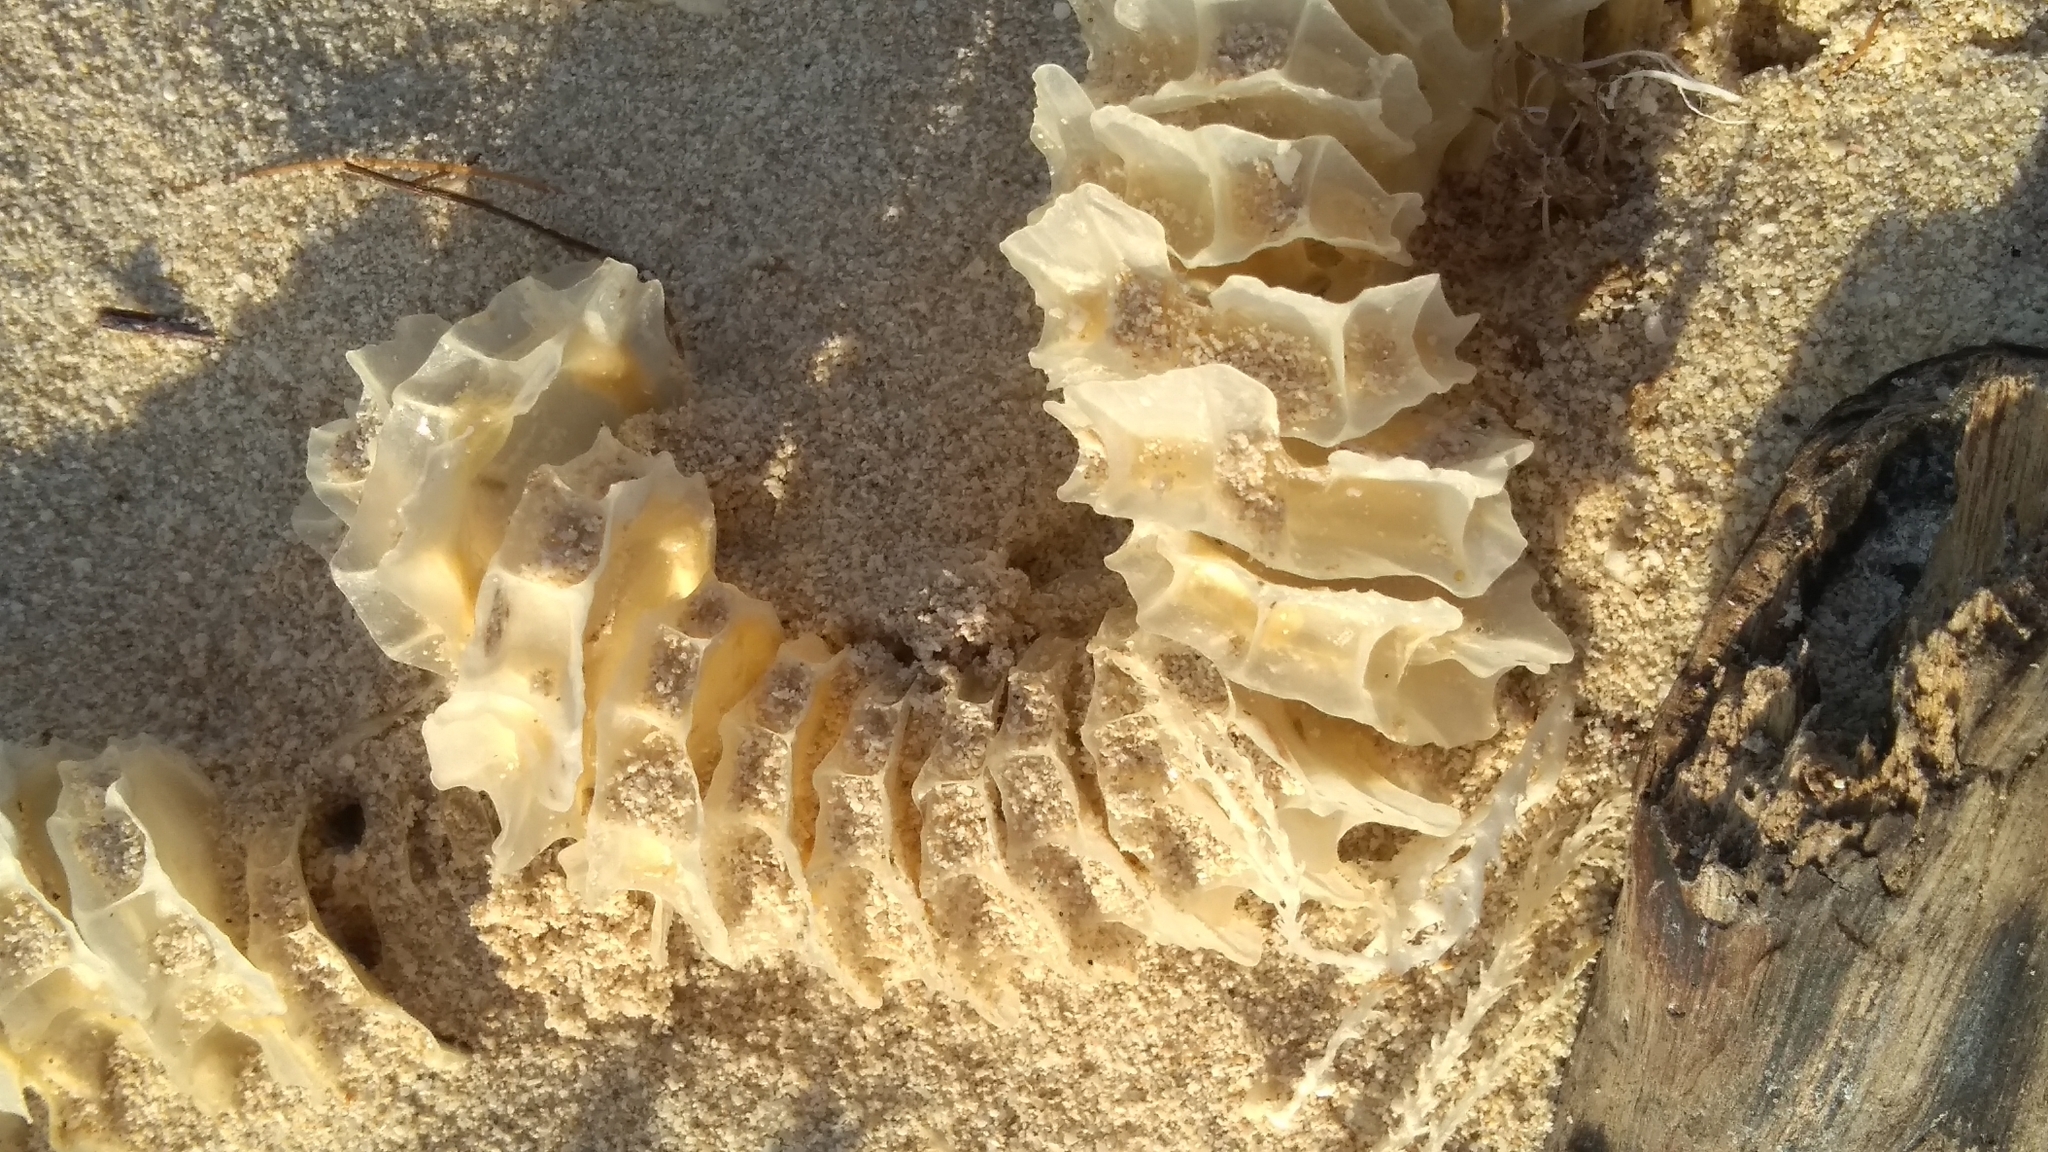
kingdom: Animalia
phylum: Mollusca
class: Gastropoda
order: Neogastropoda
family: Busyconidae
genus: Sinistrofulgur
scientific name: Sinistrofulgur sinistrum
